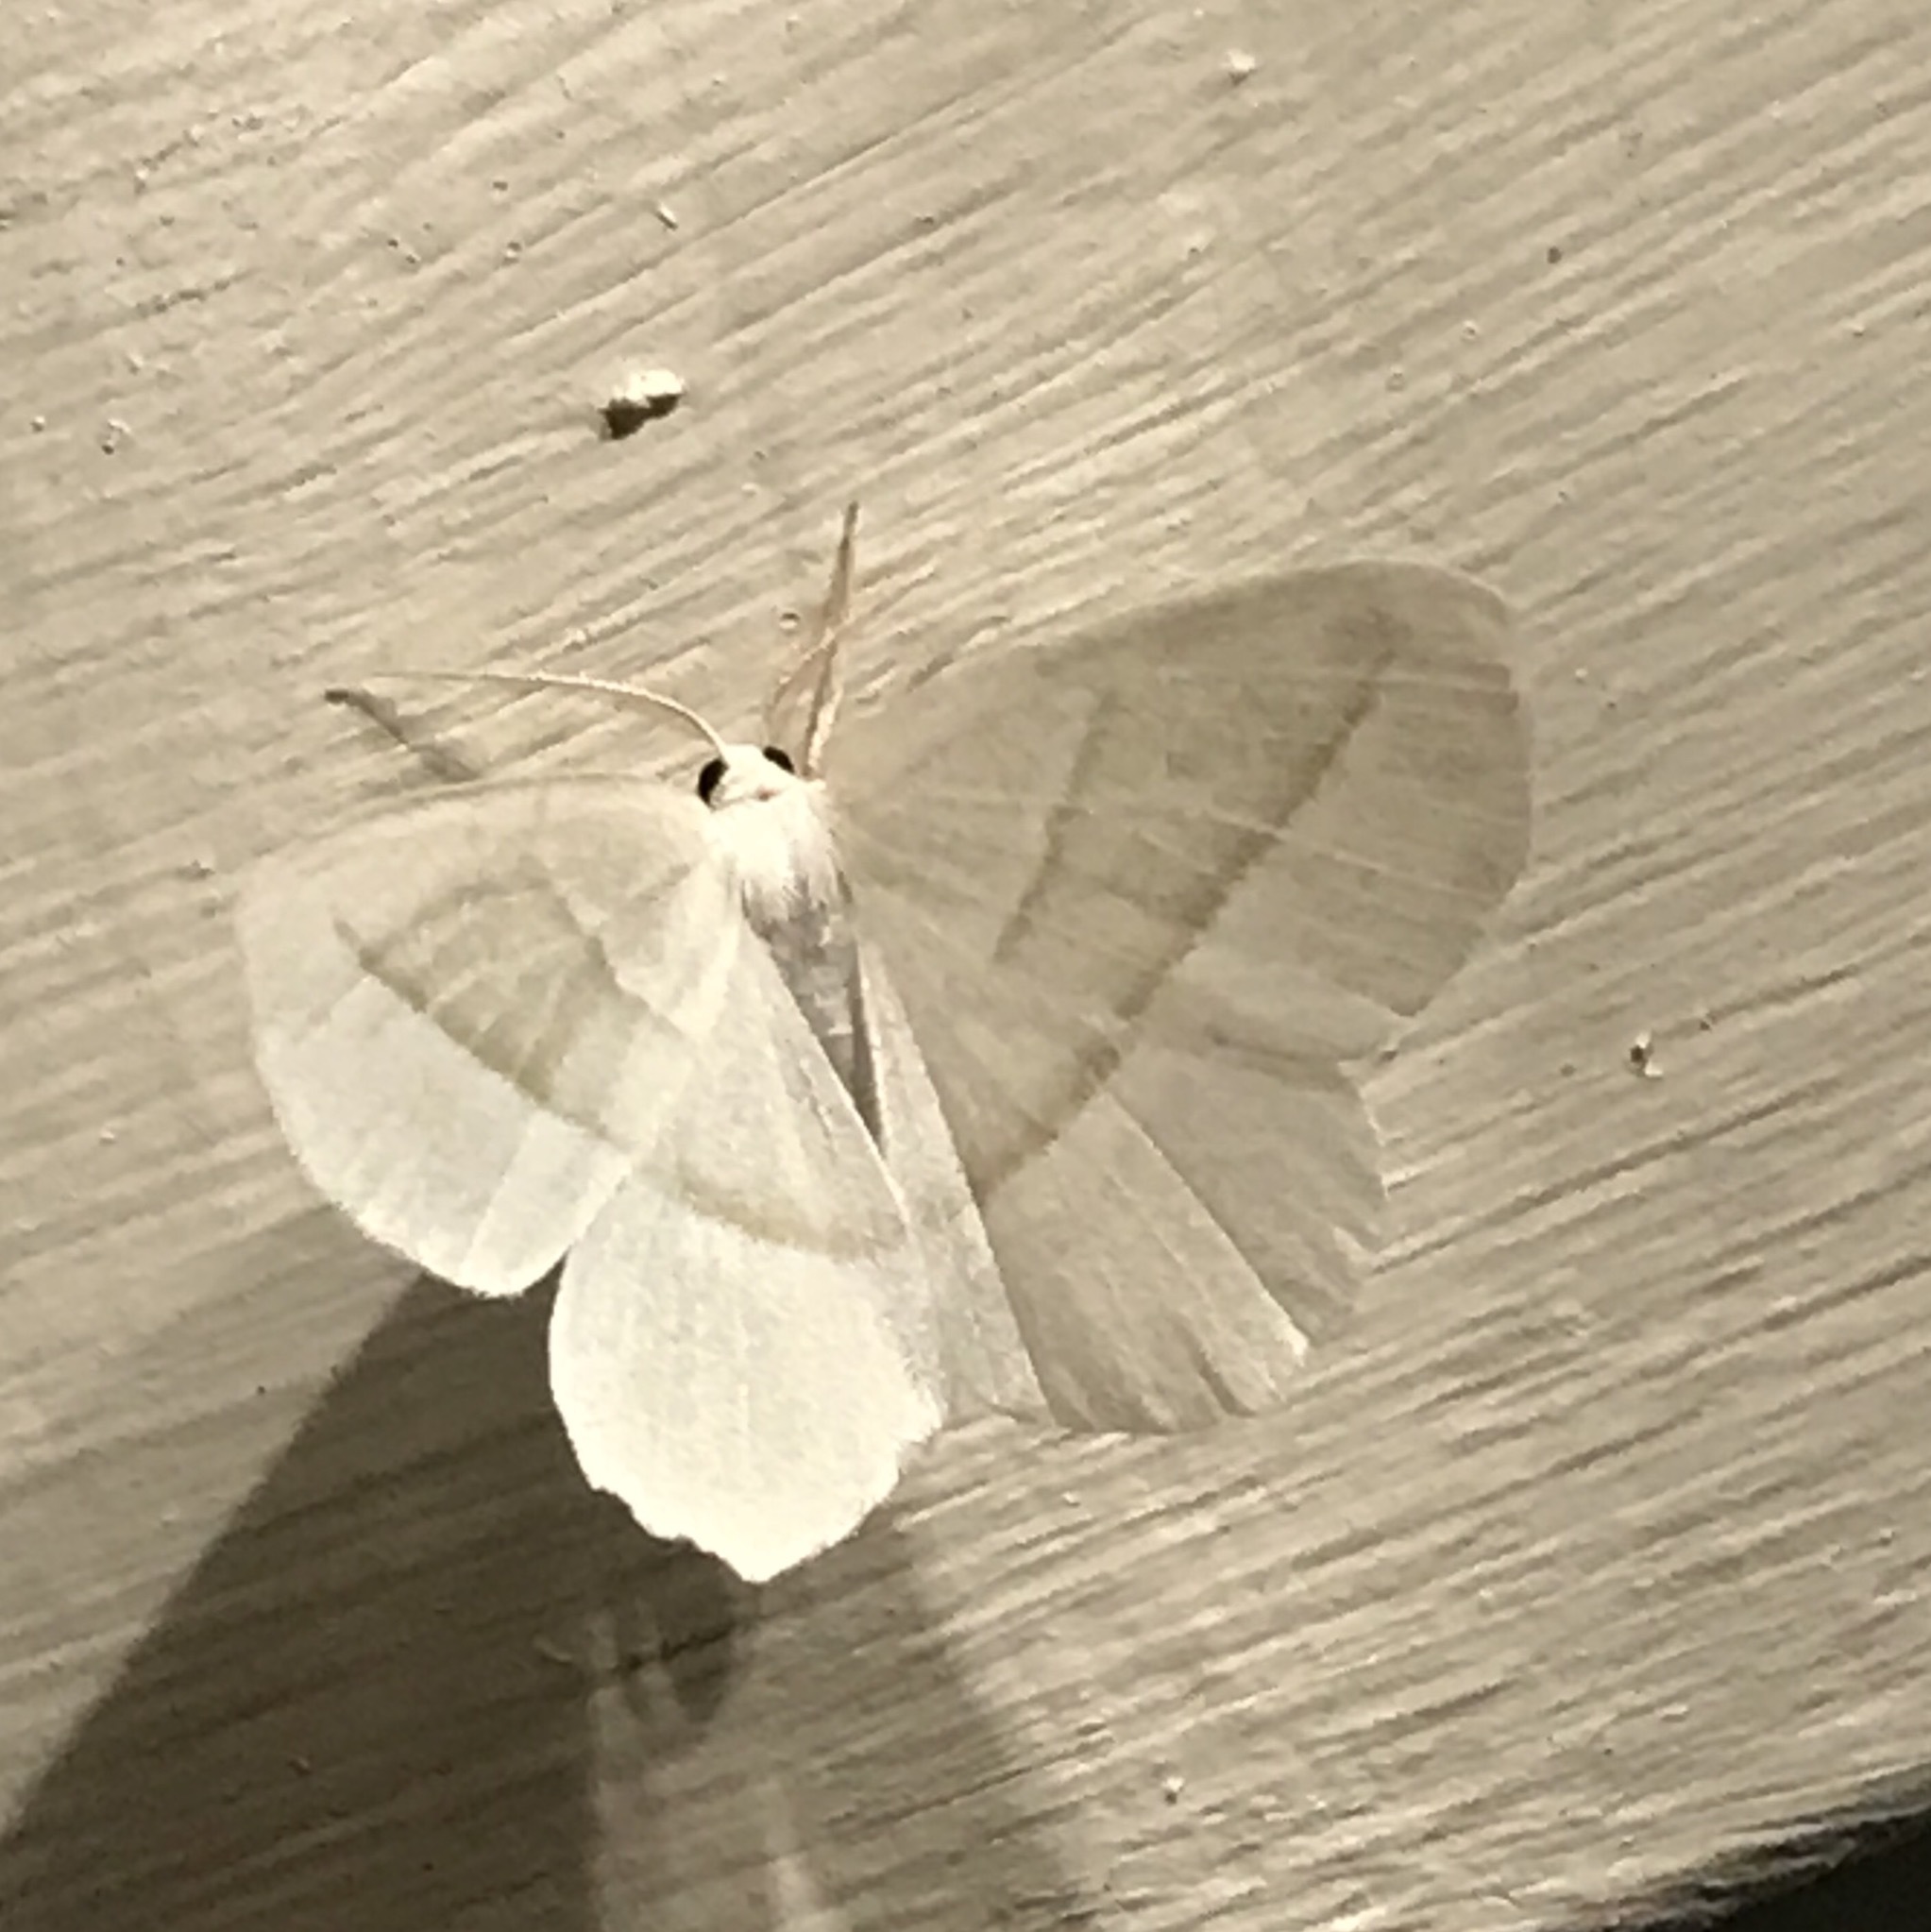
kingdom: Animalia
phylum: Arthropoda
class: Insecta
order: Lepidoptera
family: Geometridae
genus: Campaea
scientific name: Campaea perlata
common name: Fringed looper
